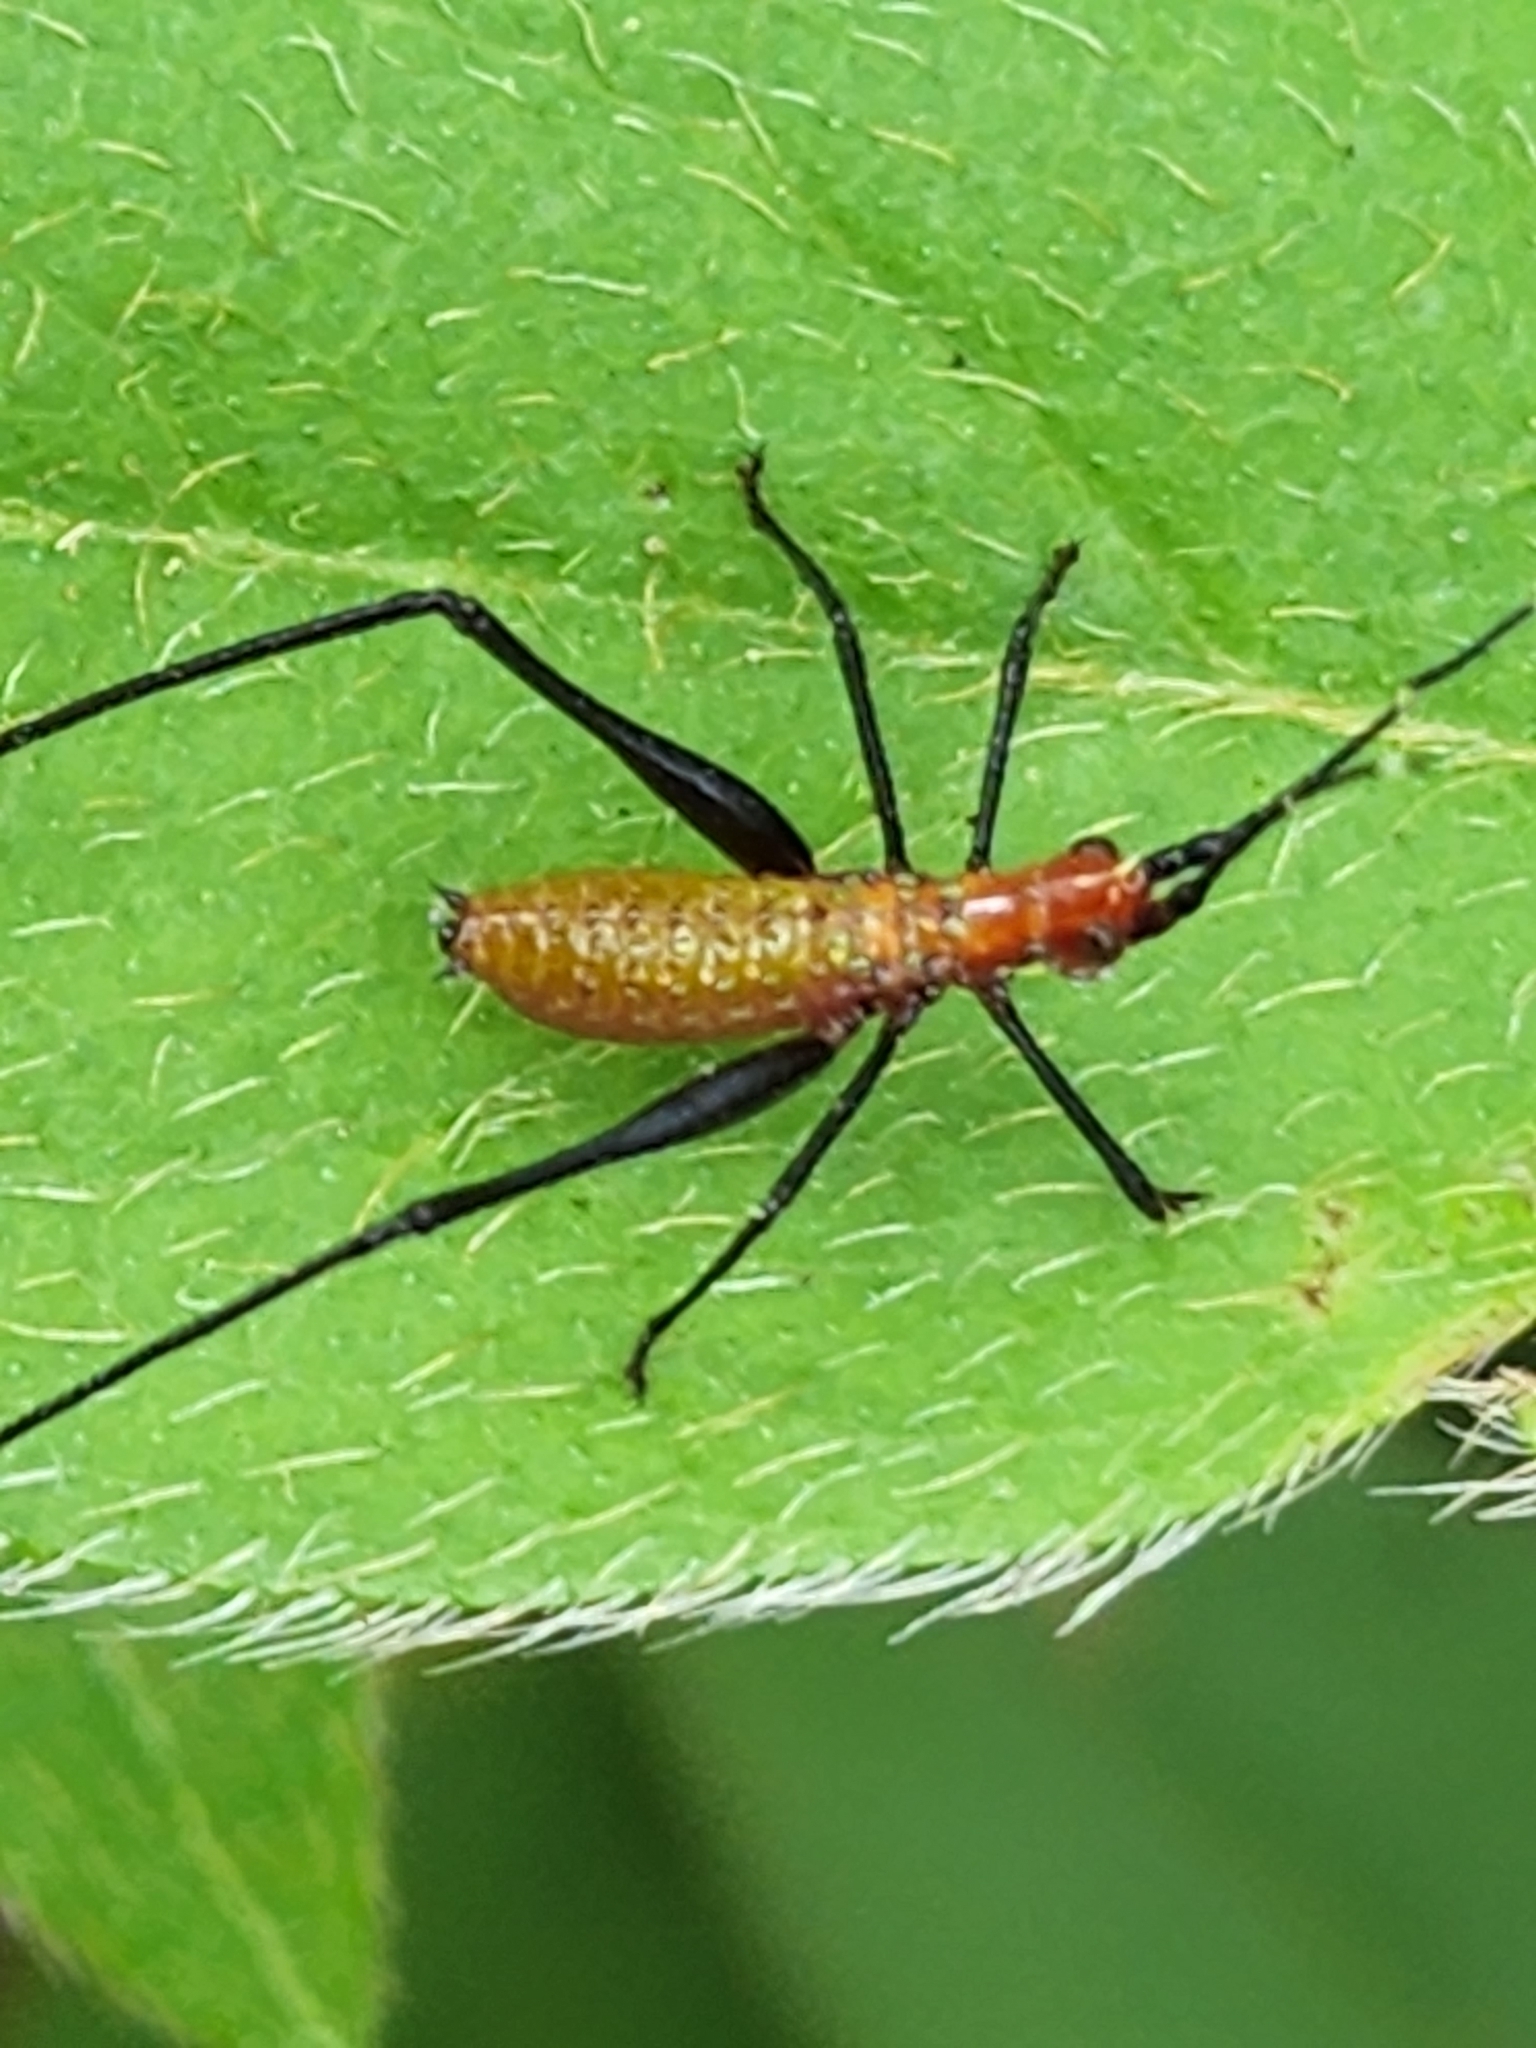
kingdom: Animalia
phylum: Arthropoda
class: Insecta
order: Orthoptera
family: Tettigoniidae
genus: Scudderia
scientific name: Scudderia cuneata
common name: Southeastern bush katydid
